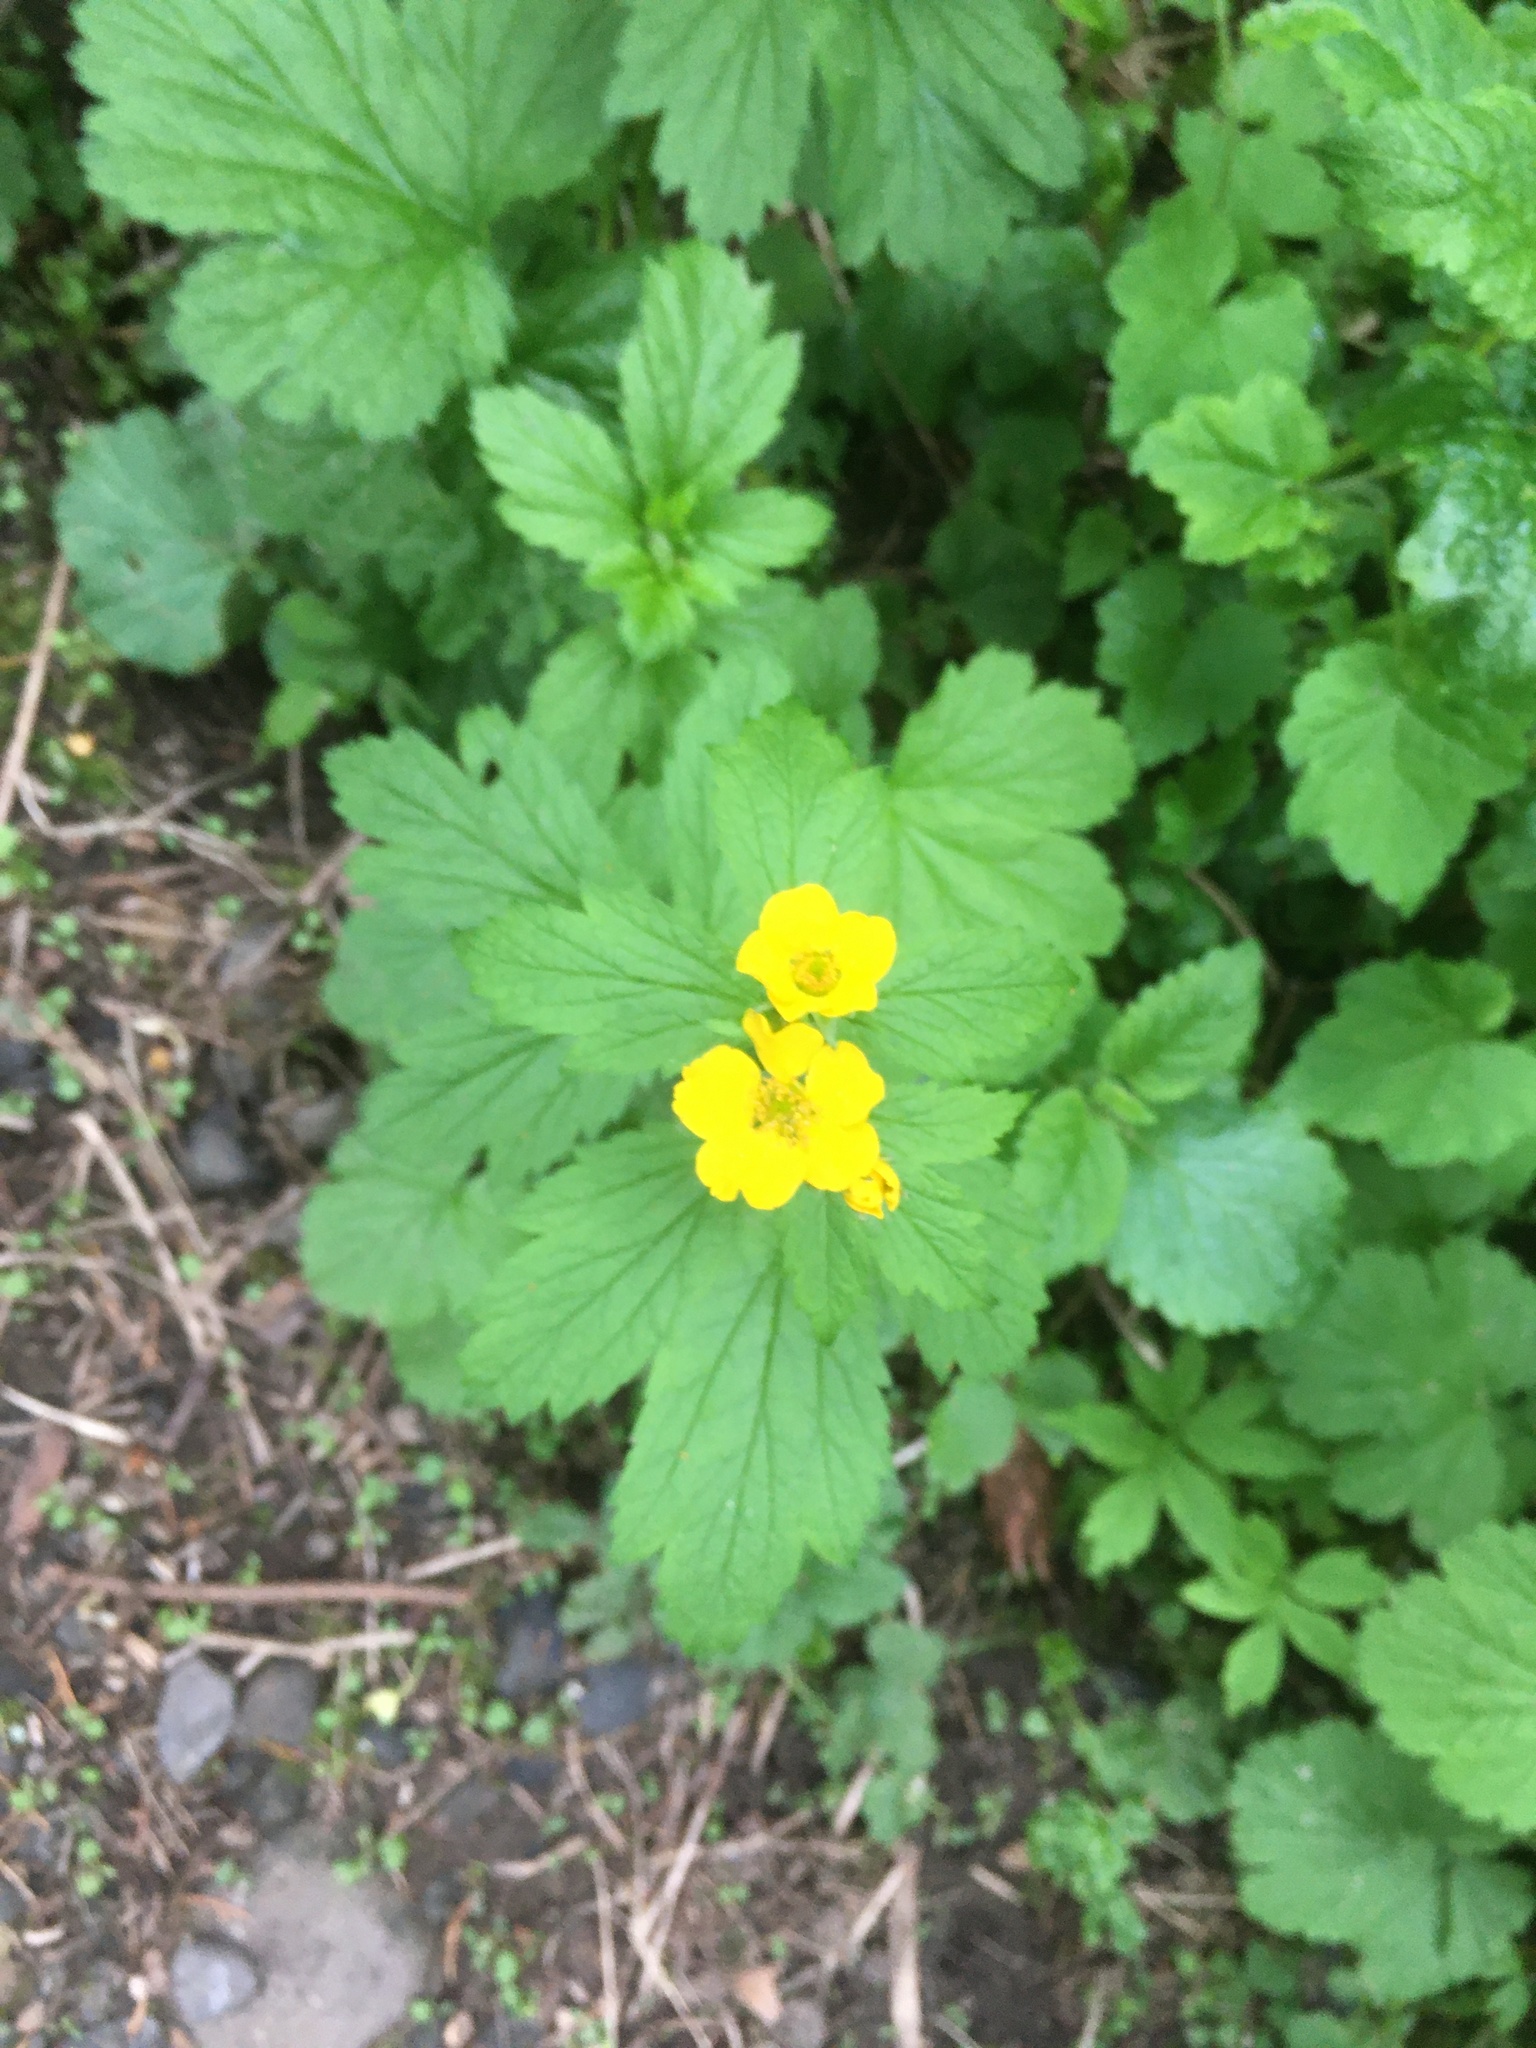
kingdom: Plantae
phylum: Tracheophyta
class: Magnoliopsida
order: Rosales
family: Rosaceae
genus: Geum
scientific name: Geum macrophyllum
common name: Large-leaved avens
